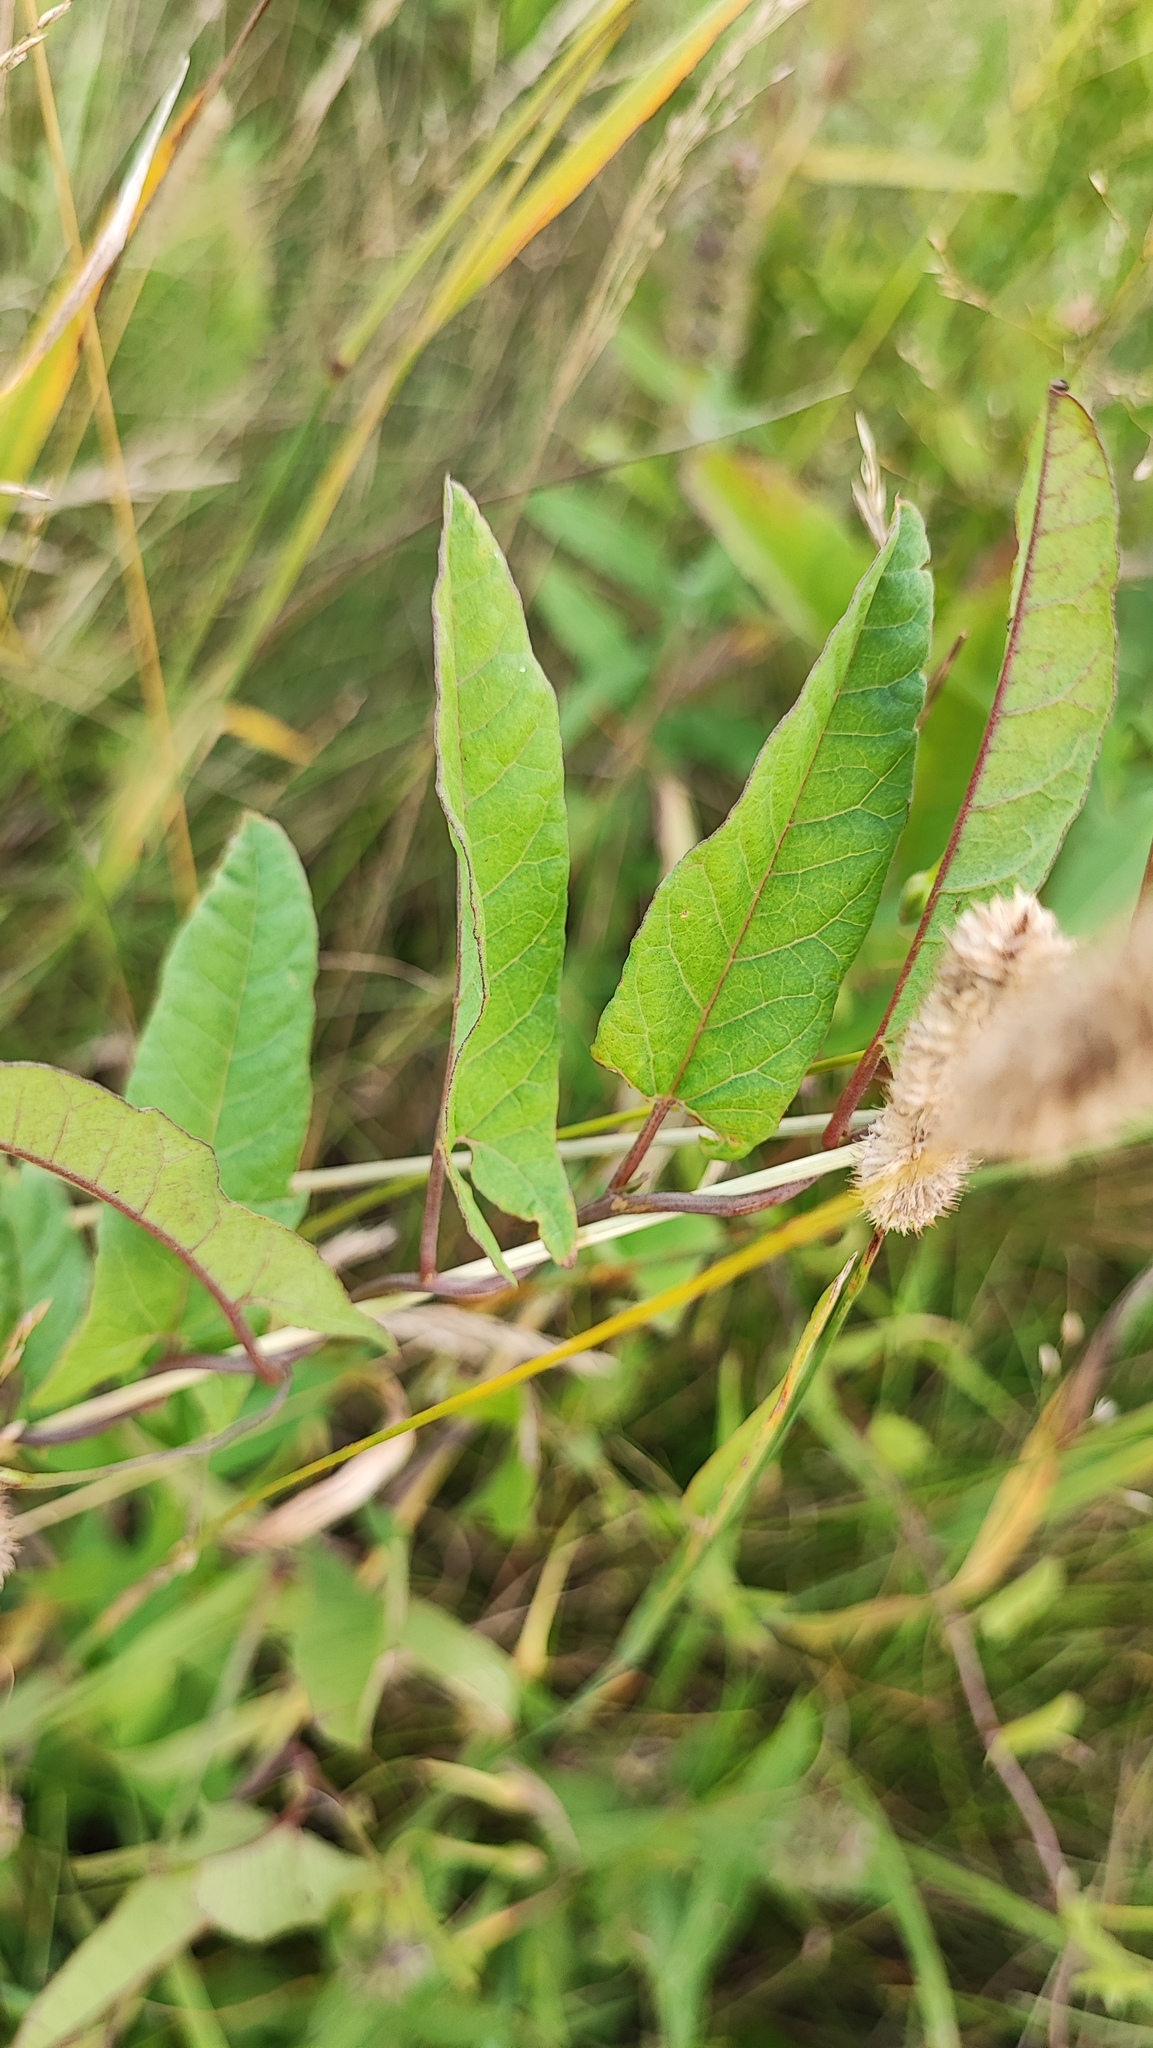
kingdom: Plantae
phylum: Tracheophyta
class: Magnoliopsida
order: Solanales
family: Convolvulaceae
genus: Convolvulus
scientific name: Convolvulus arvensis
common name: Field bindweed
